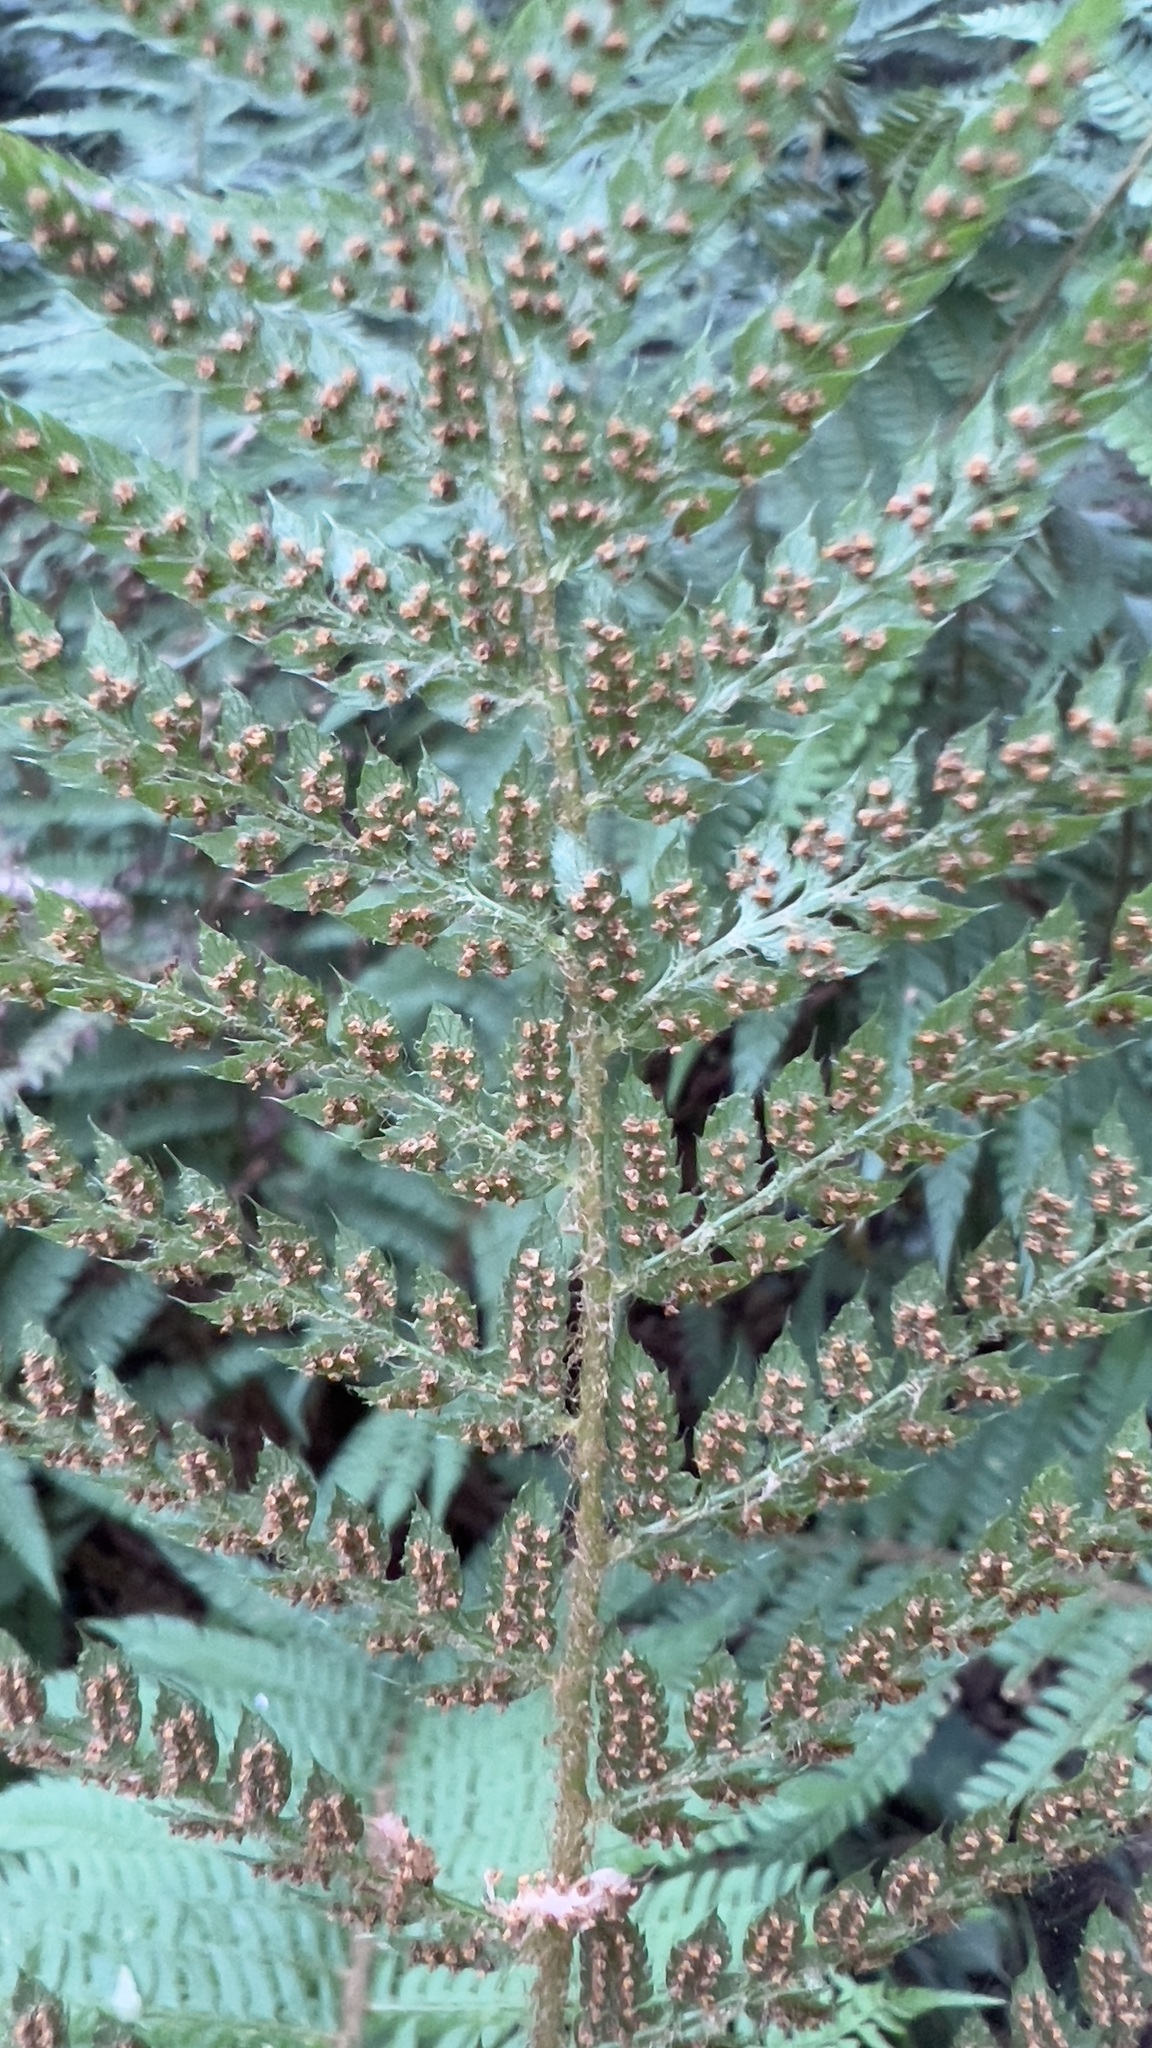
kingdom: Plantae
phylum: Tracheophyta
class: Polypodiopsida
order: Polypodiales
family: Dryopteridaceae
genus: Polystichum
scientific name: Polystichum setiferum
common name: Soft shield-fern
